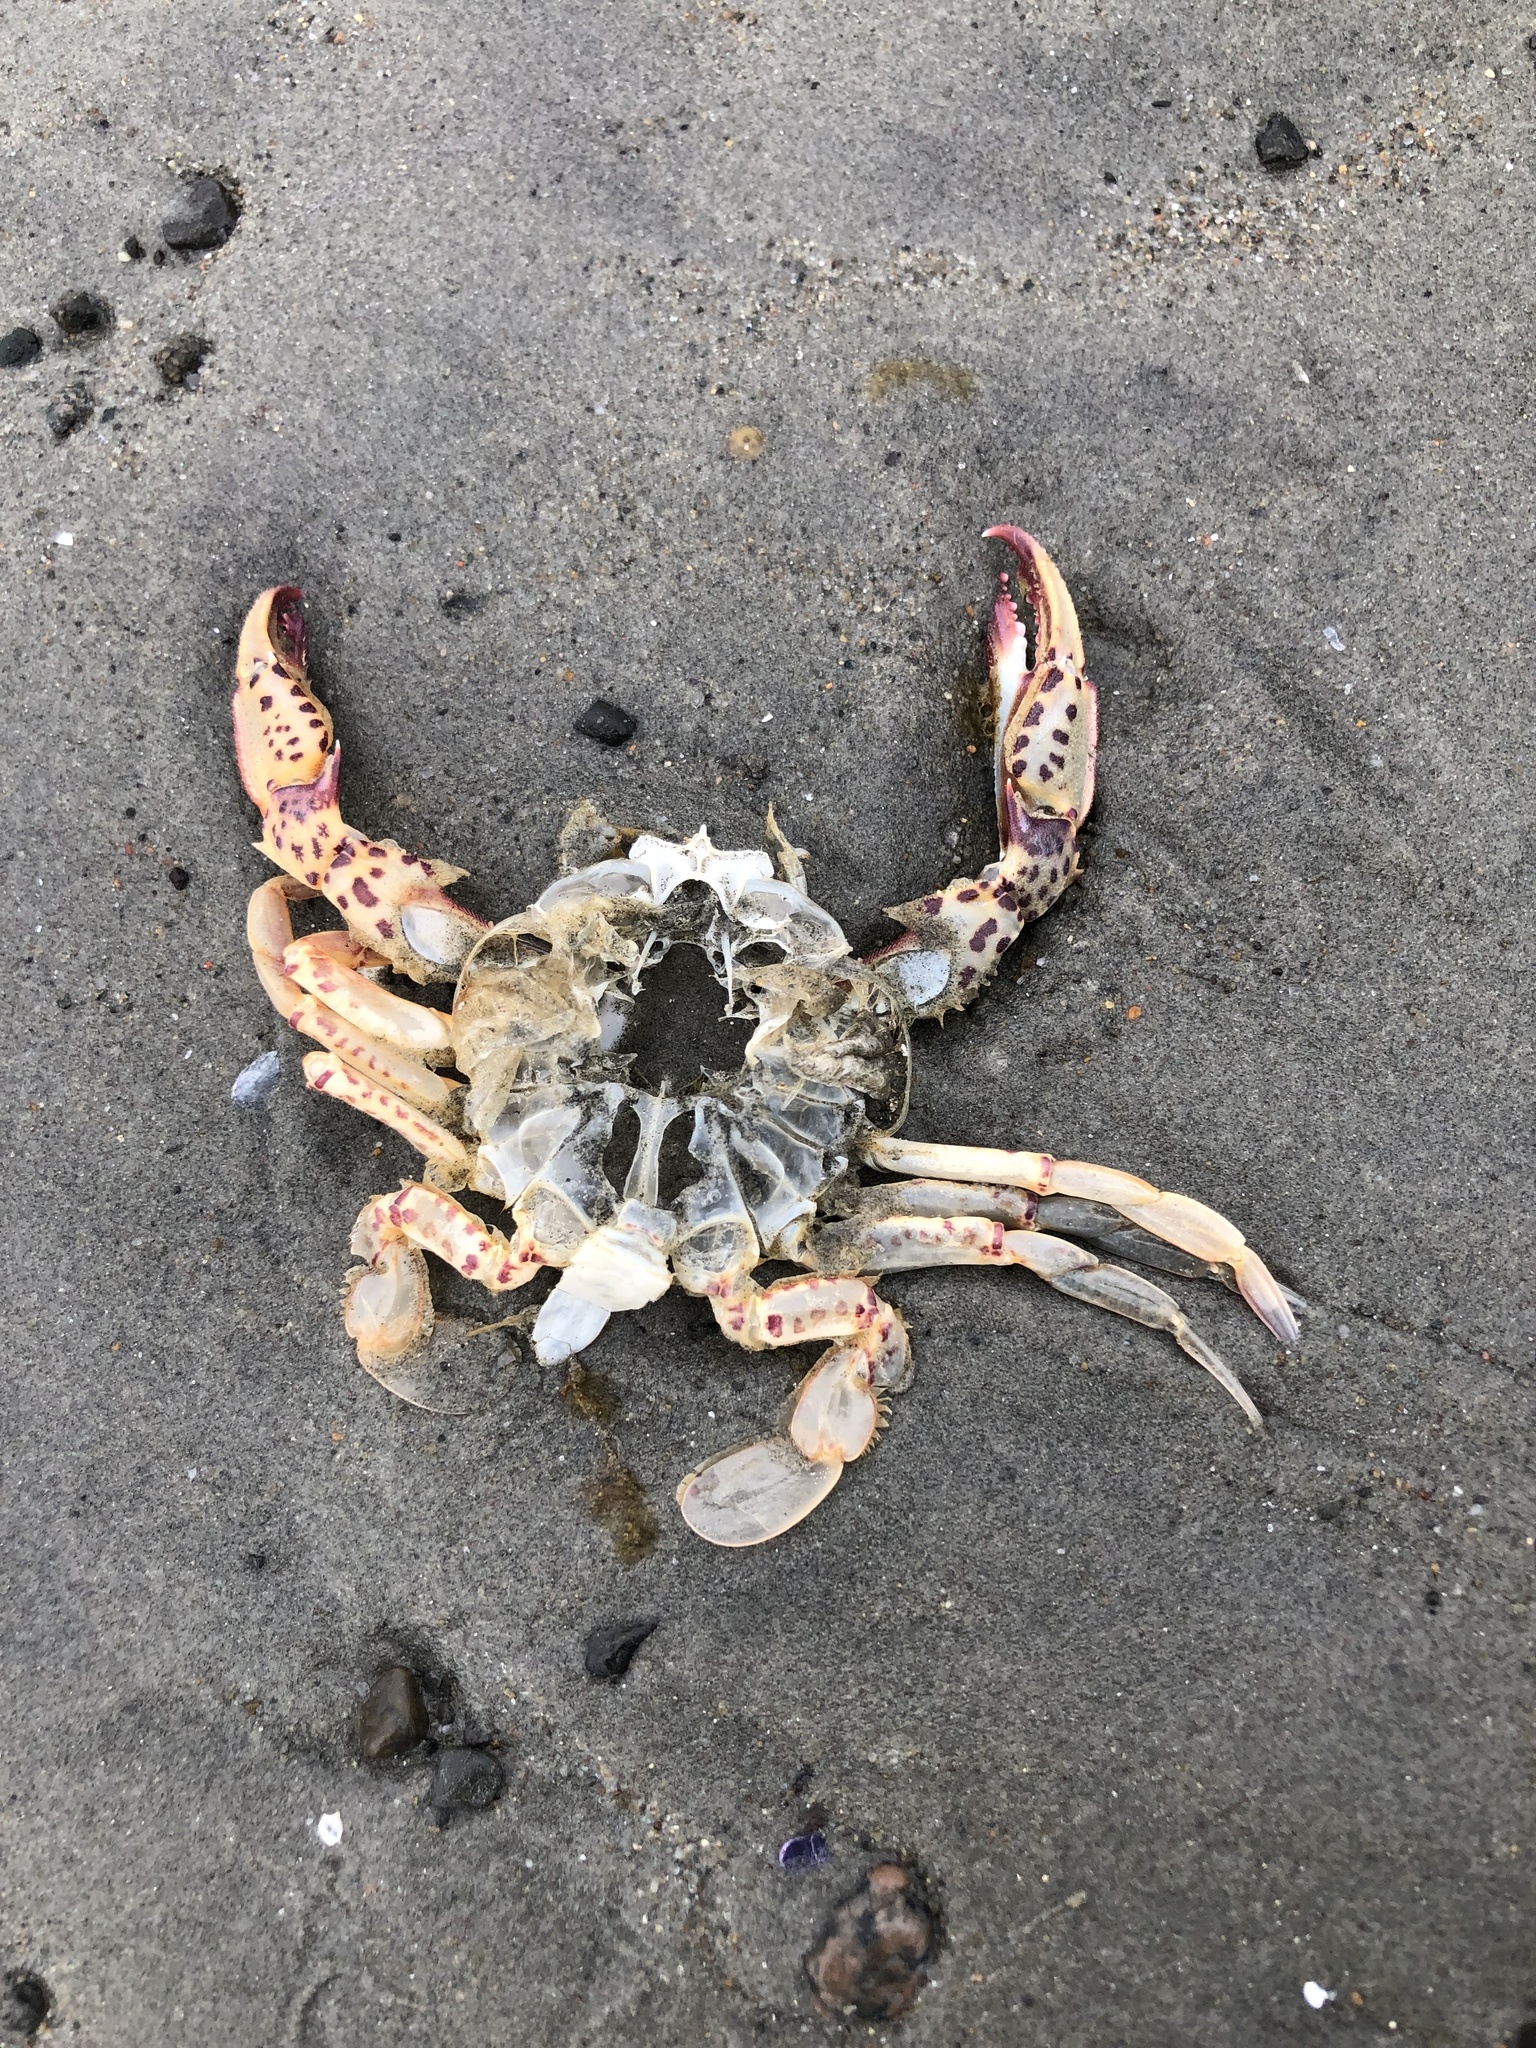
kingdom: Animalia
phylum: Arthropoda
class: Malacostraca
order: Decapoda
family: Ovalipidae
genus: Ovalipes
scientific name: Ovalipes ocellatus
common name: Lady crab
